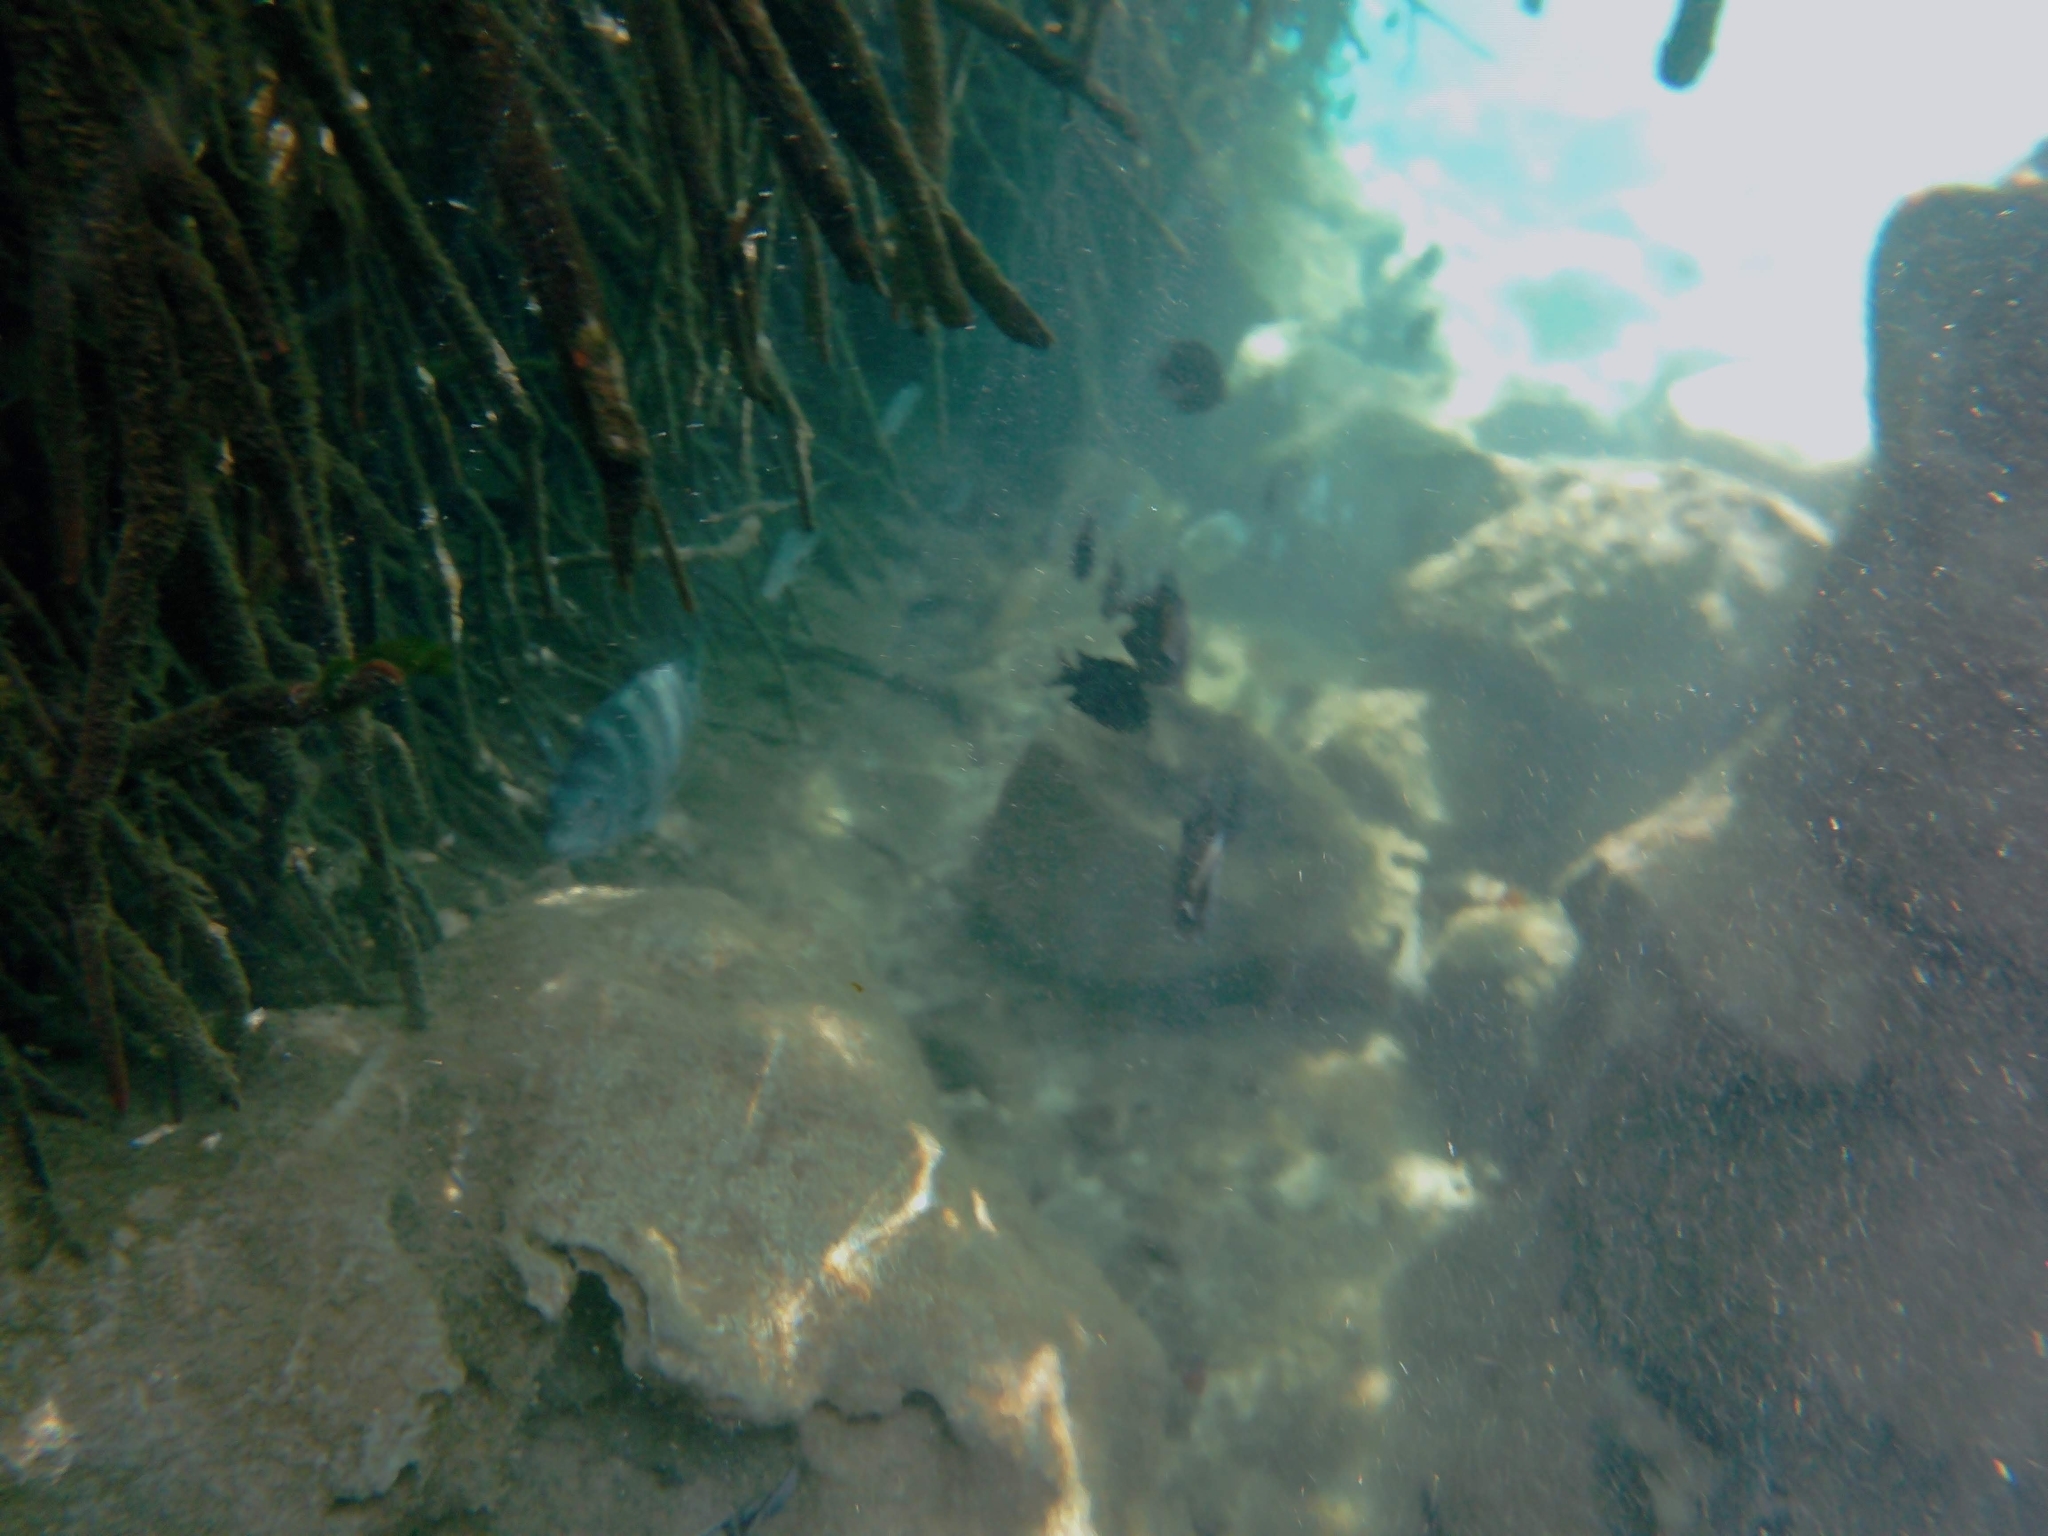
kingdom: Animalia
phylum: Chordata
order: Perciformes
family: Pomacentridae
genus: Abudefduf
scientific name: Abudefduf saxatilis
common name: Sergeant major
